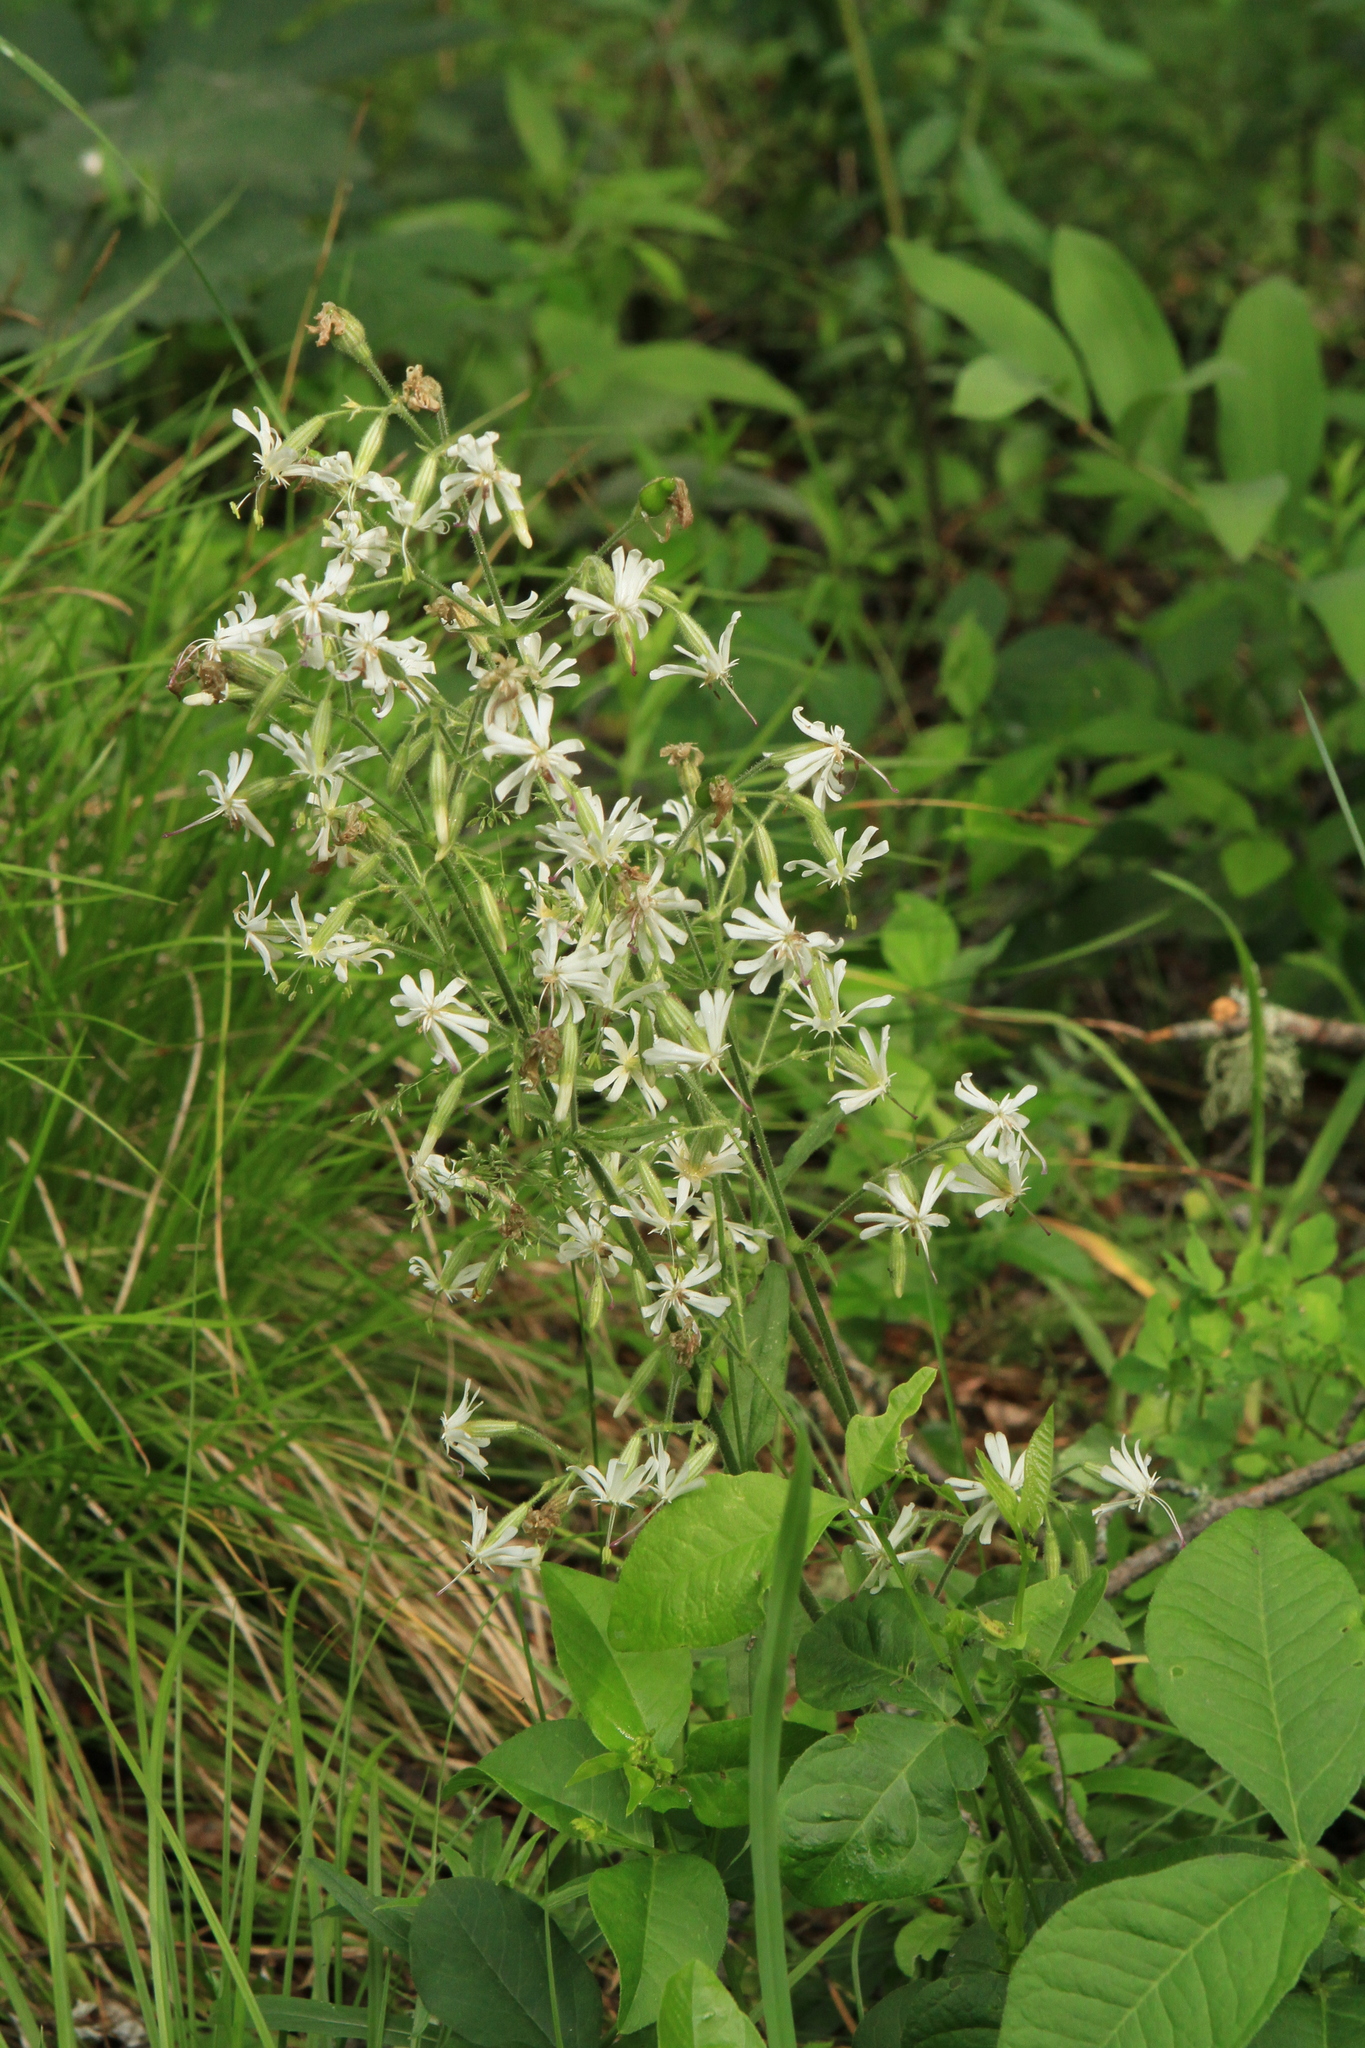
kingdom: Plantae
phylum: Tracheophyta
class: Magnoliopsida
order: Caryophyllales
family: Caryophyllaceae
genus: Silene
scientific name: Silene nutans
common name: Nottingham catchfly
